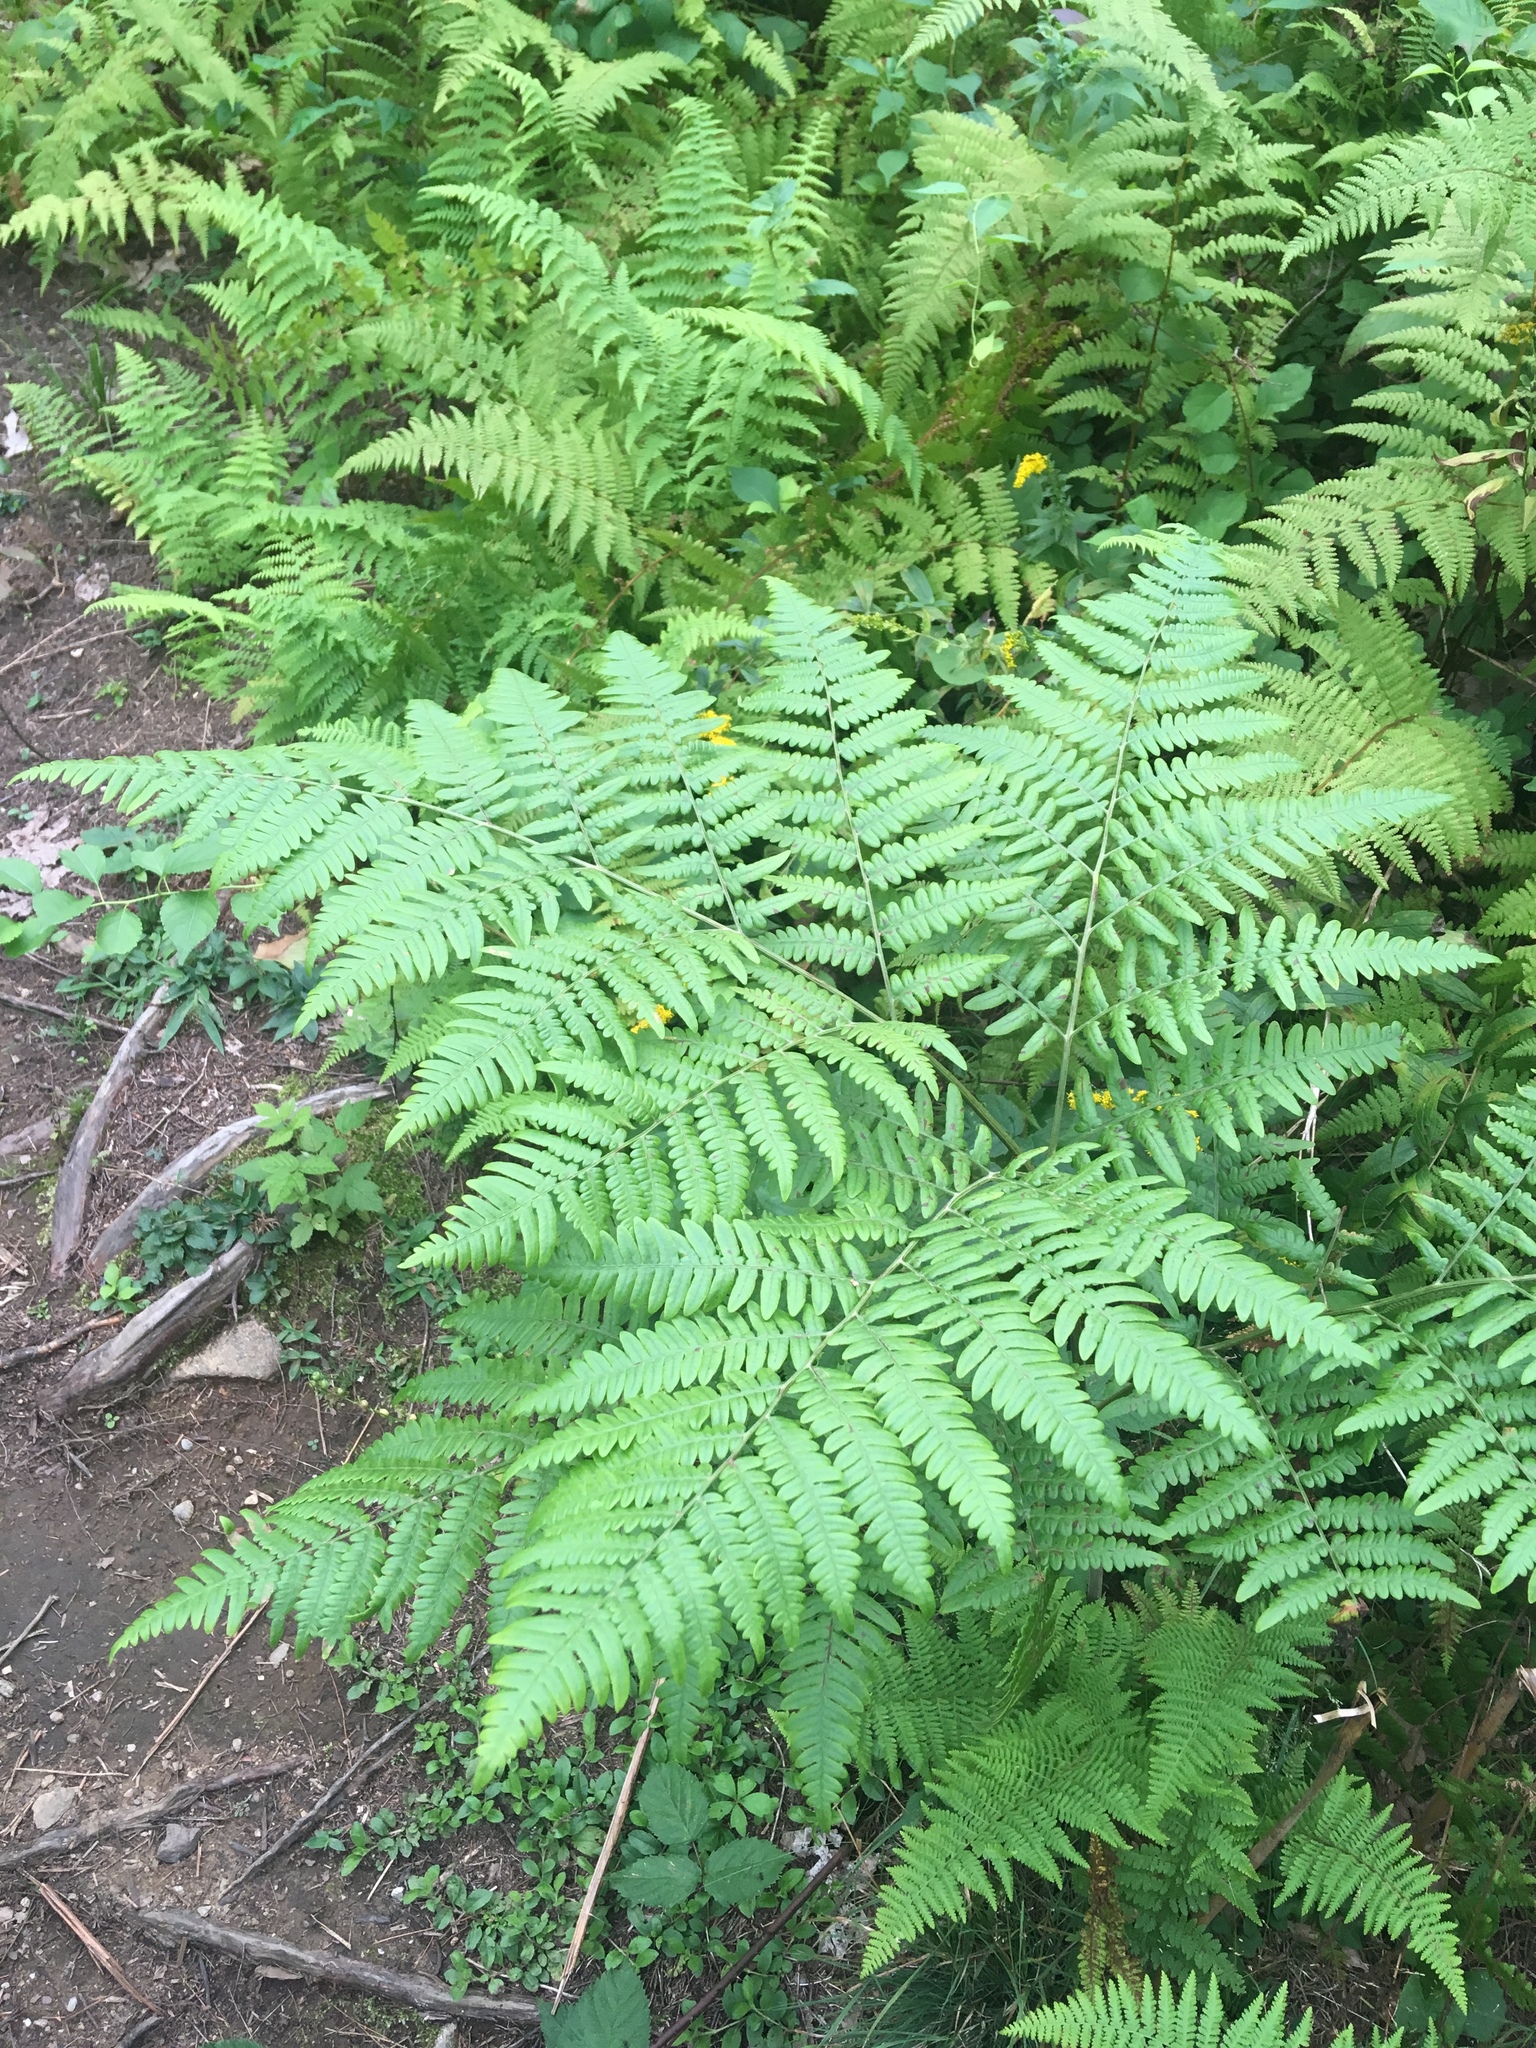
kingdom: Plantae
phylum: Tracheophyta
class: Polypodiopsida
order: Polypodiales
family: Dennstaedtiaceae
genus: Pteridium
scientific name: Pteridium aquilinum
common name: Bracken
